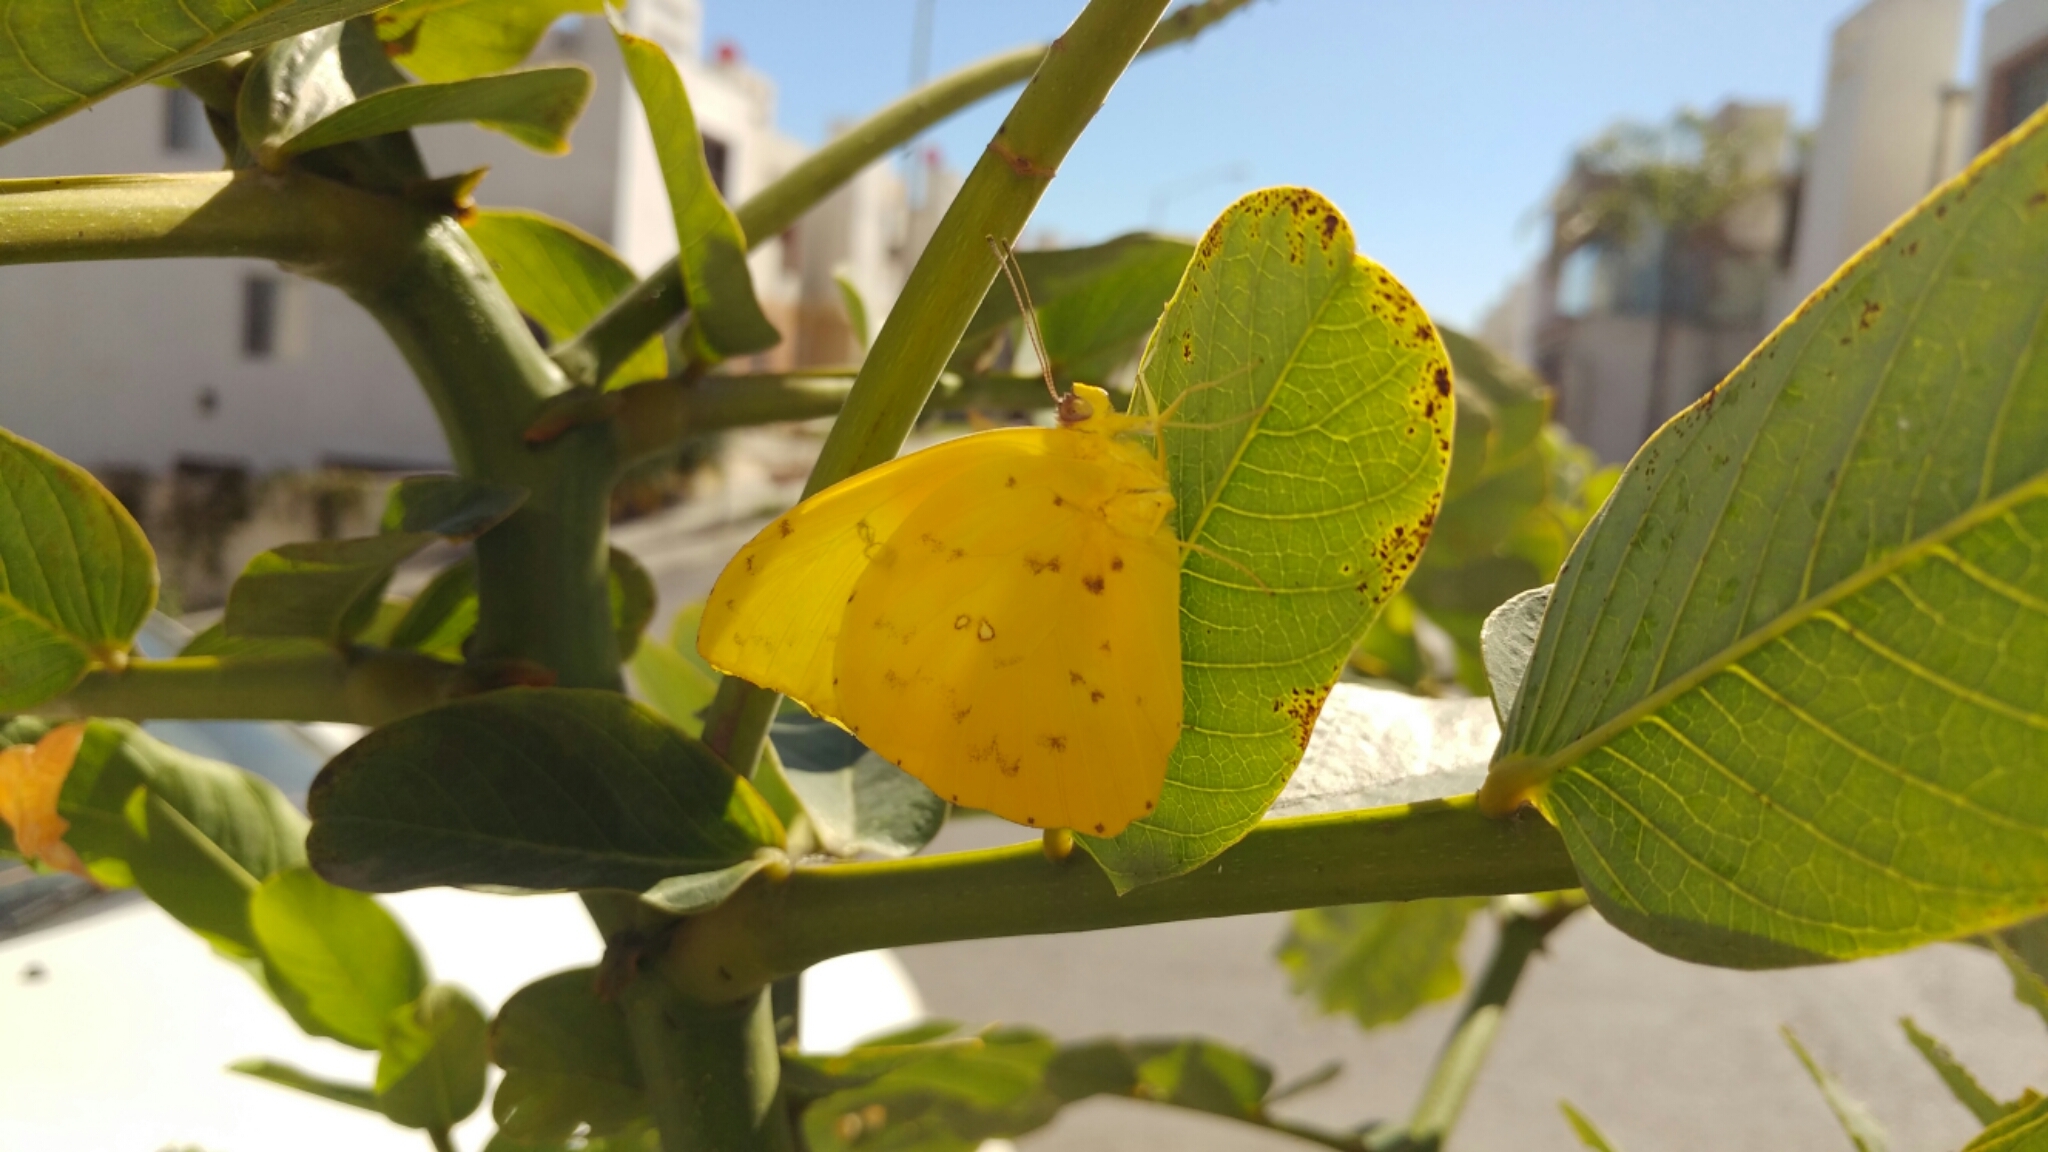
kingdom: Animalia
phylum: Arthropoda
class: Insecta
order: Lepidoptera
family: Pieridae
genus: Phoebis
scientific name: Phoebis sennae
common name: Cloudless sulphur
